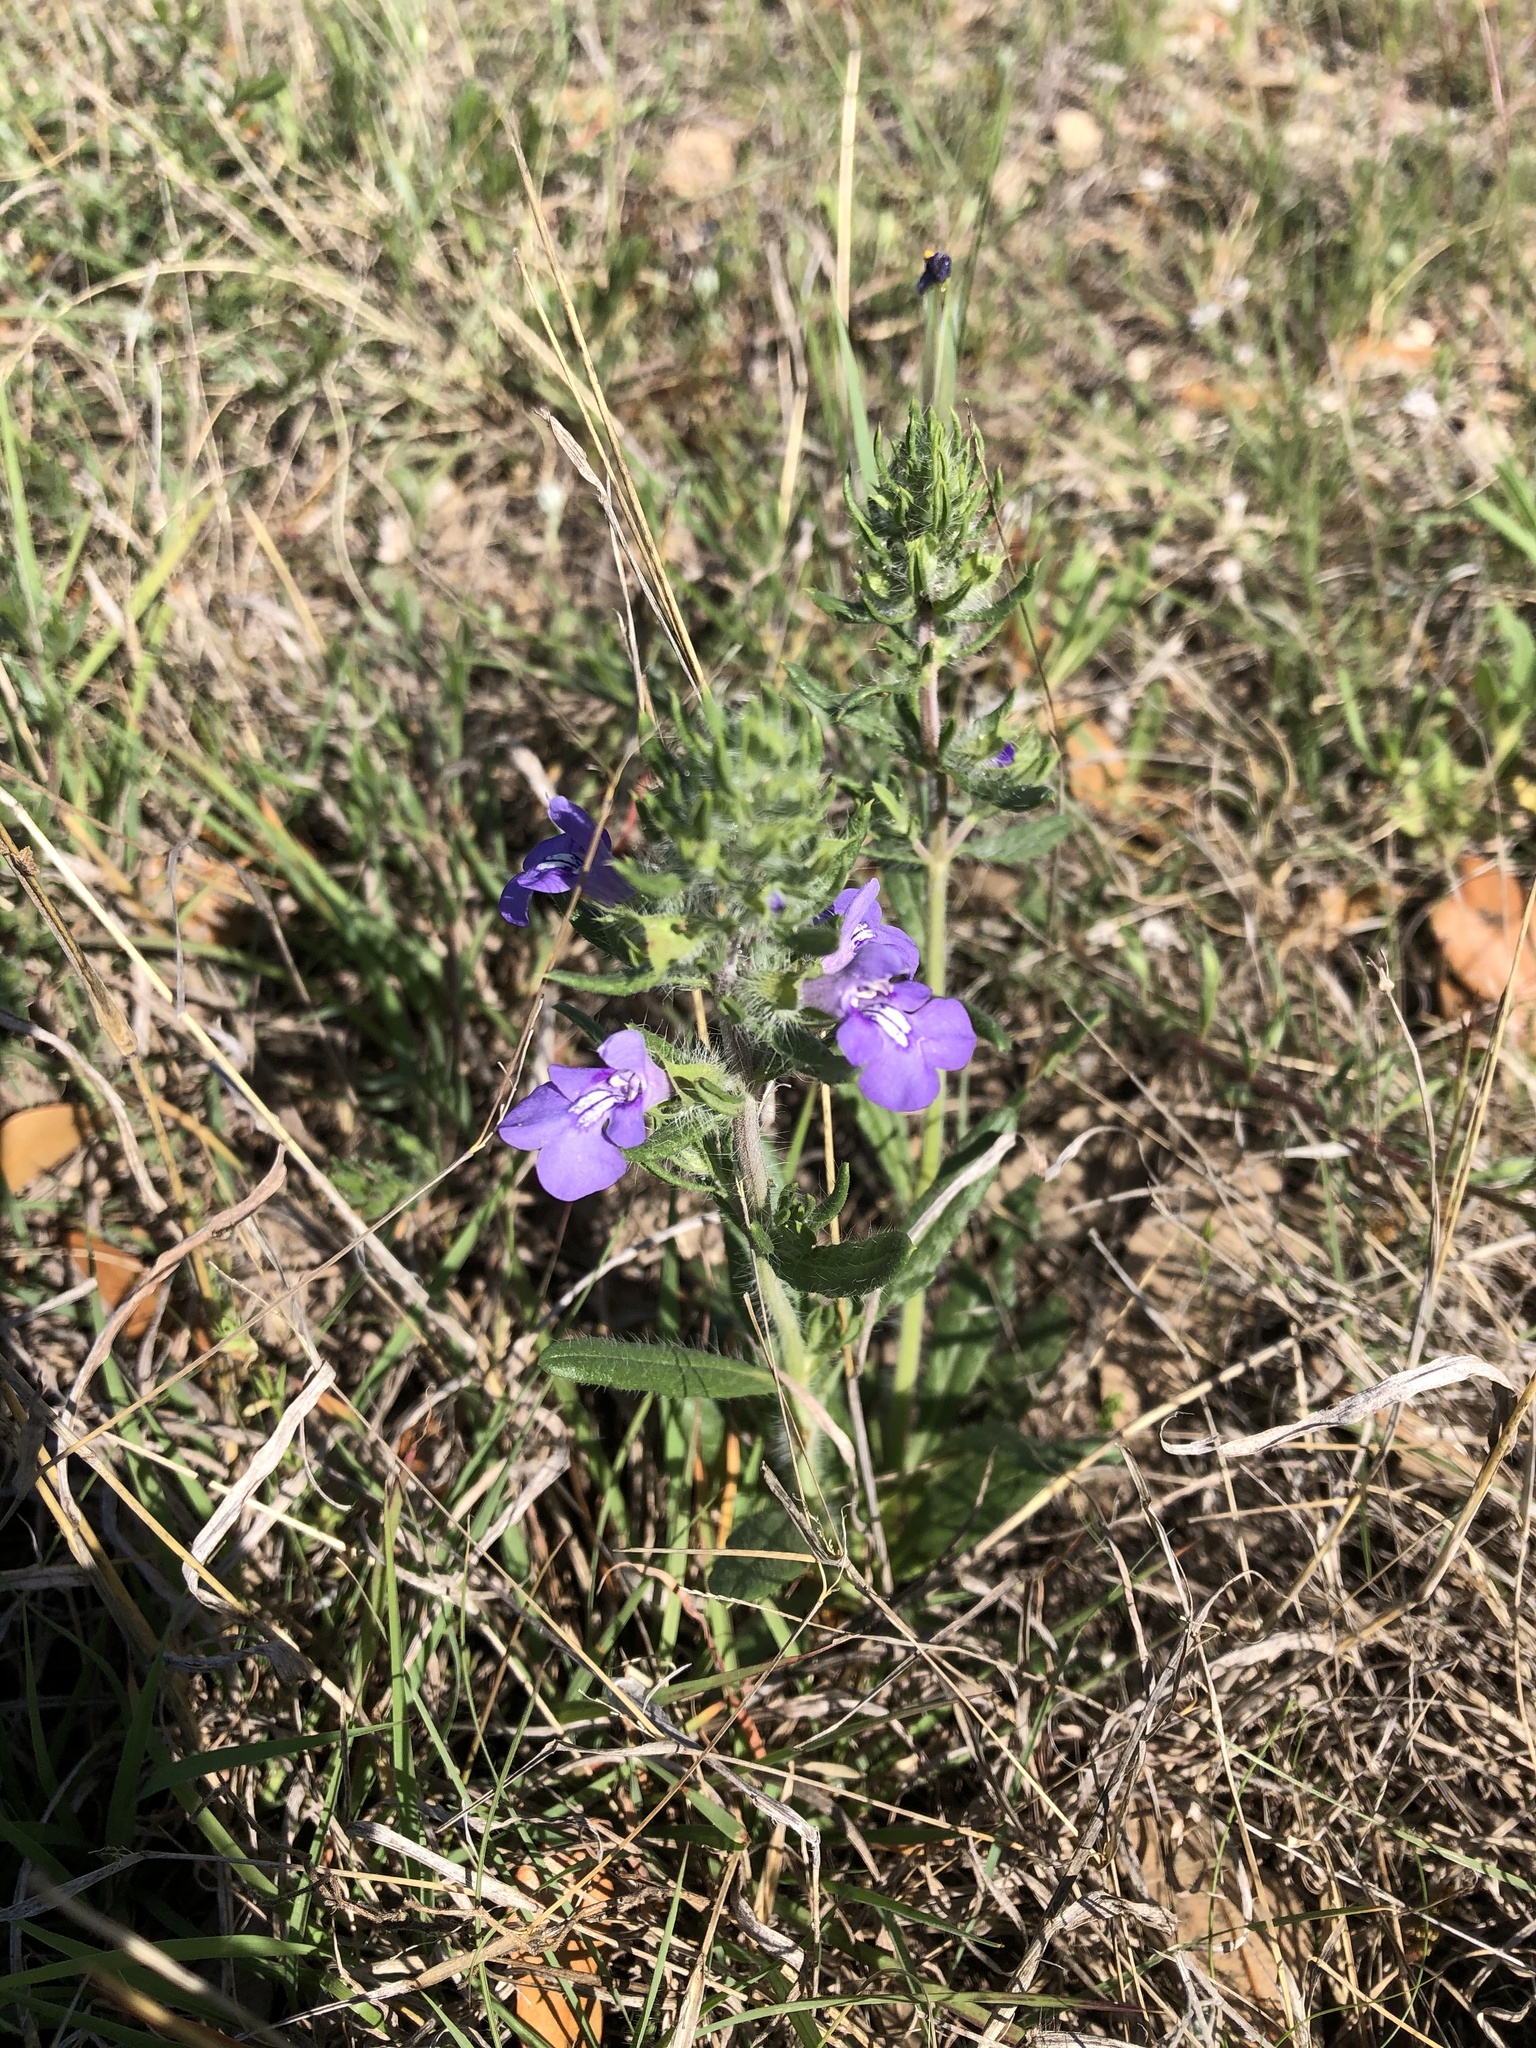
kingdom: Plantae
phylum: Tracheophyta
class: Magnoliopsida
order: Lamiales
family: Lamiaceae
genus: Salvia
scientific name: Salvia texana
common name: Texas sage
